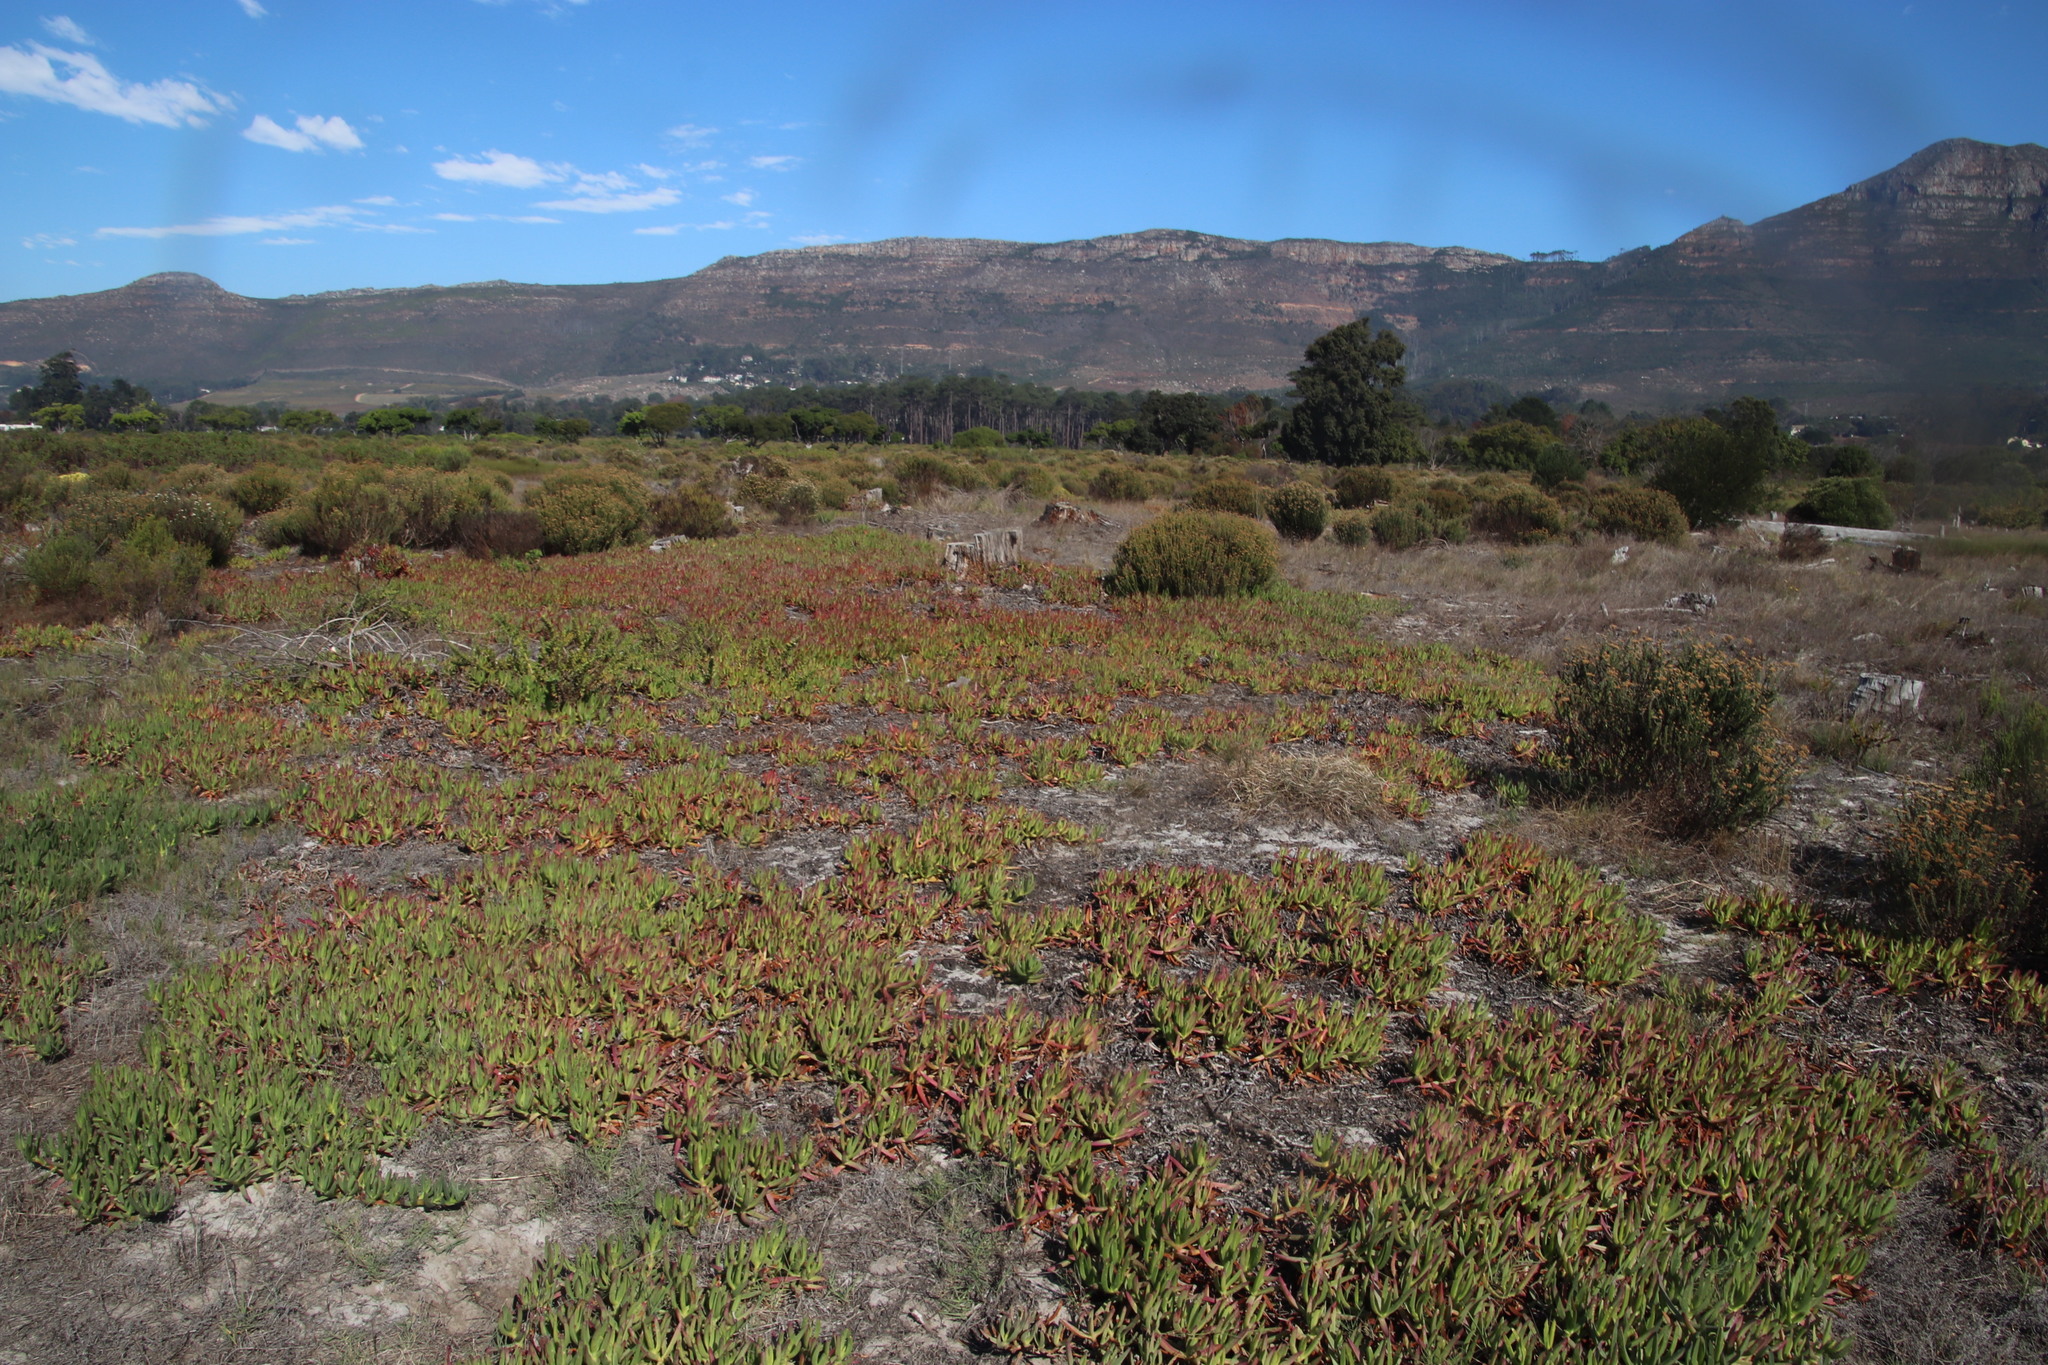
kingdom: Plantae
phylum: Tracheophyta
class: Magnoliopsida
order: Caryophyllales
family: Aizoaceae
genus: Carpobrotus
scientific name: Carpobrotus edulis
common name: Hottentot-fig
